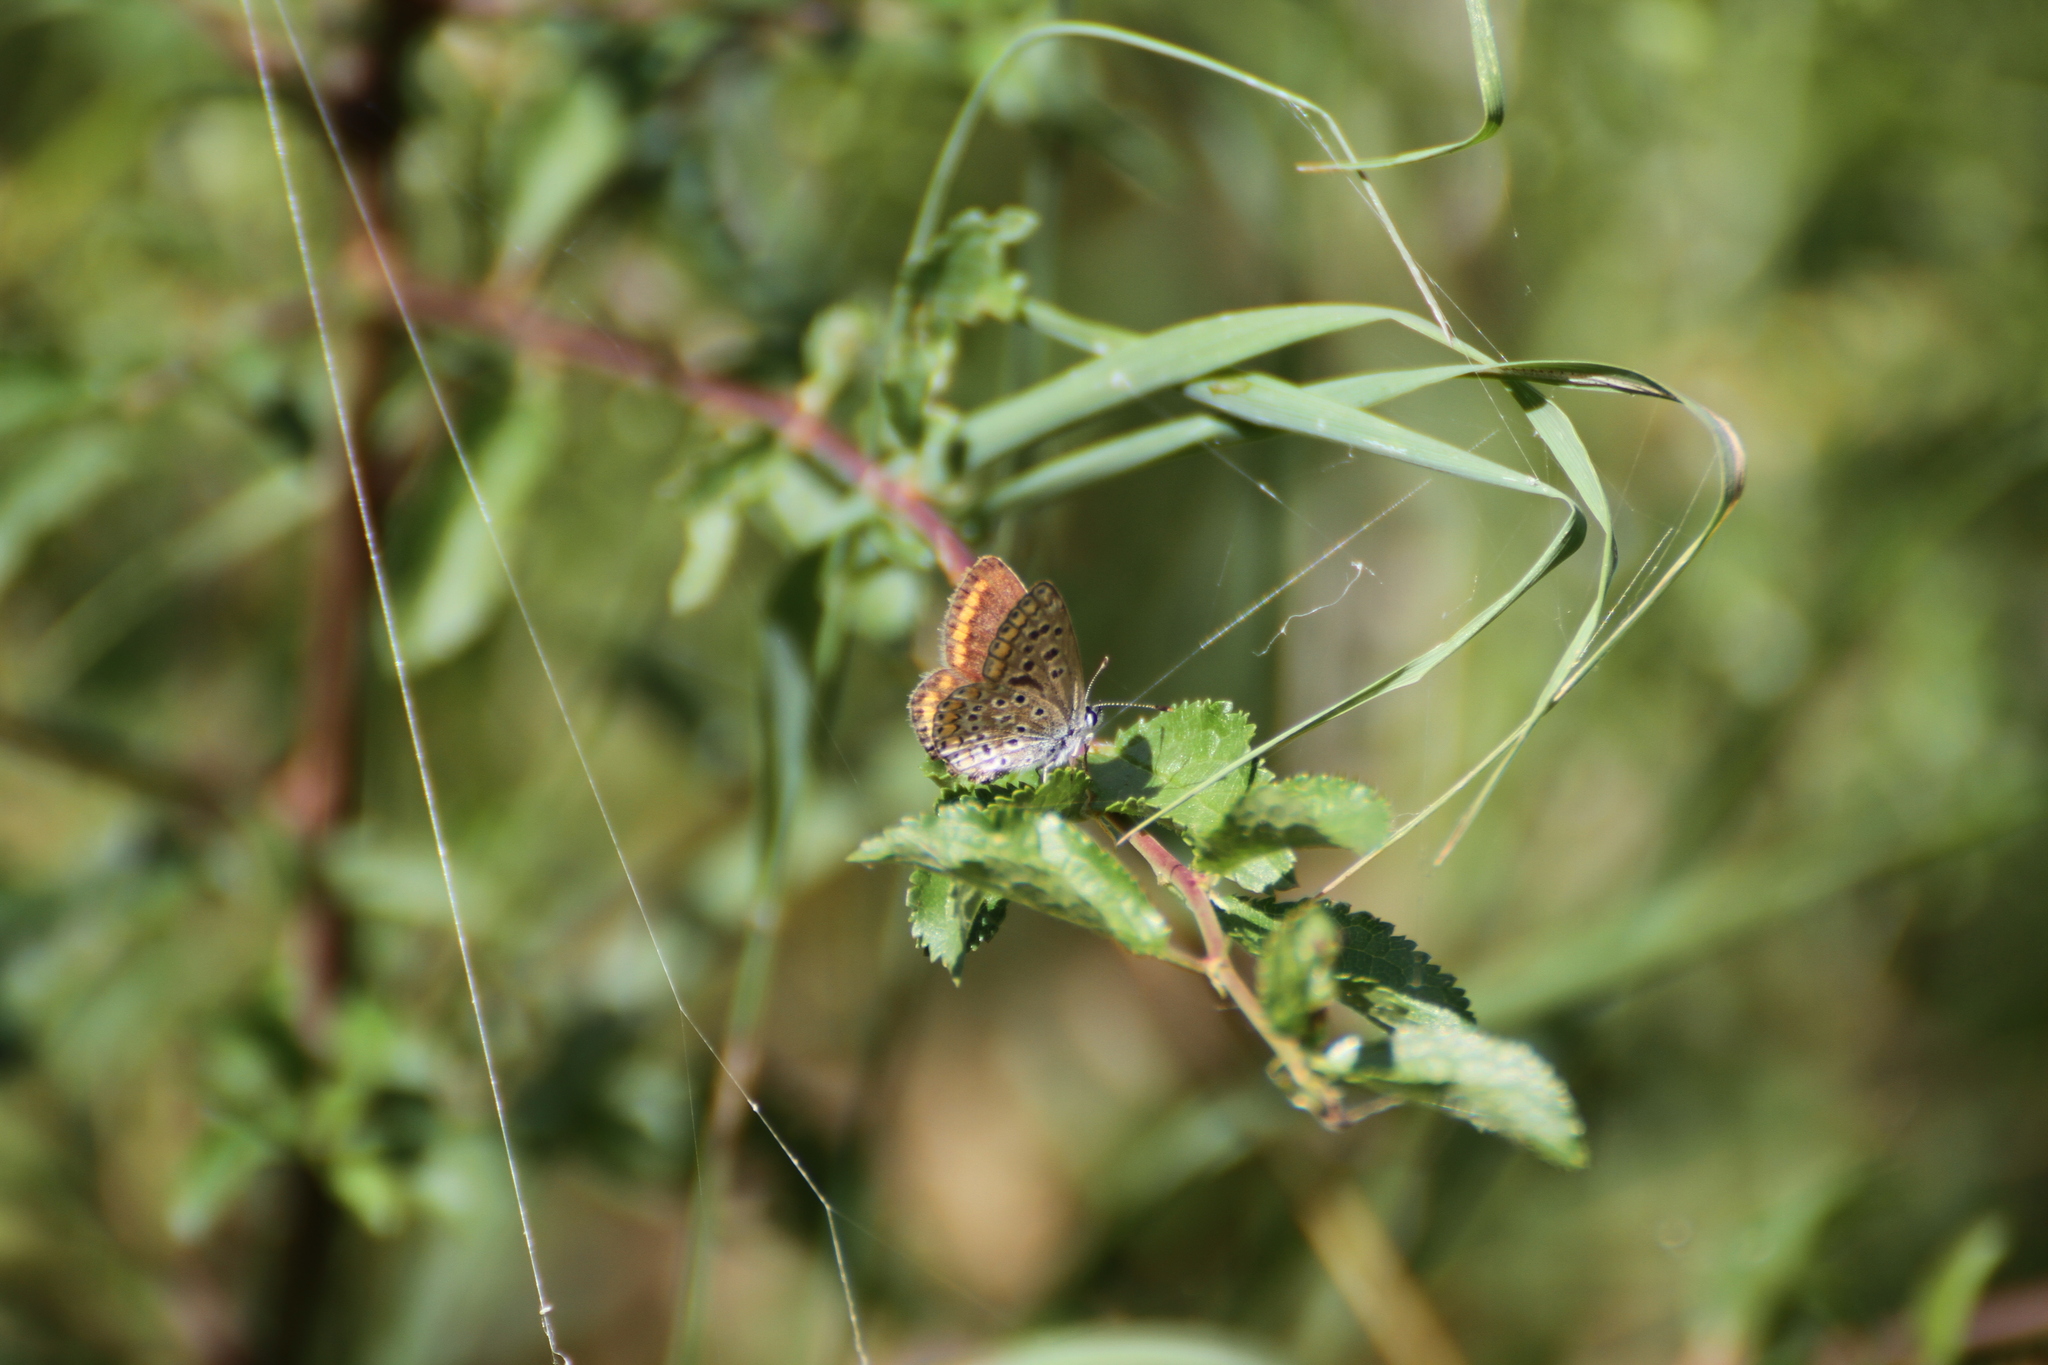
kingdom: Animalia
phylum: Arthropoda
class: Insecta
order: Lepidoptera
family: Lycaenidae
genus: Polyommatus
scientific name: Polyommatus icarus
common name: Common blue
